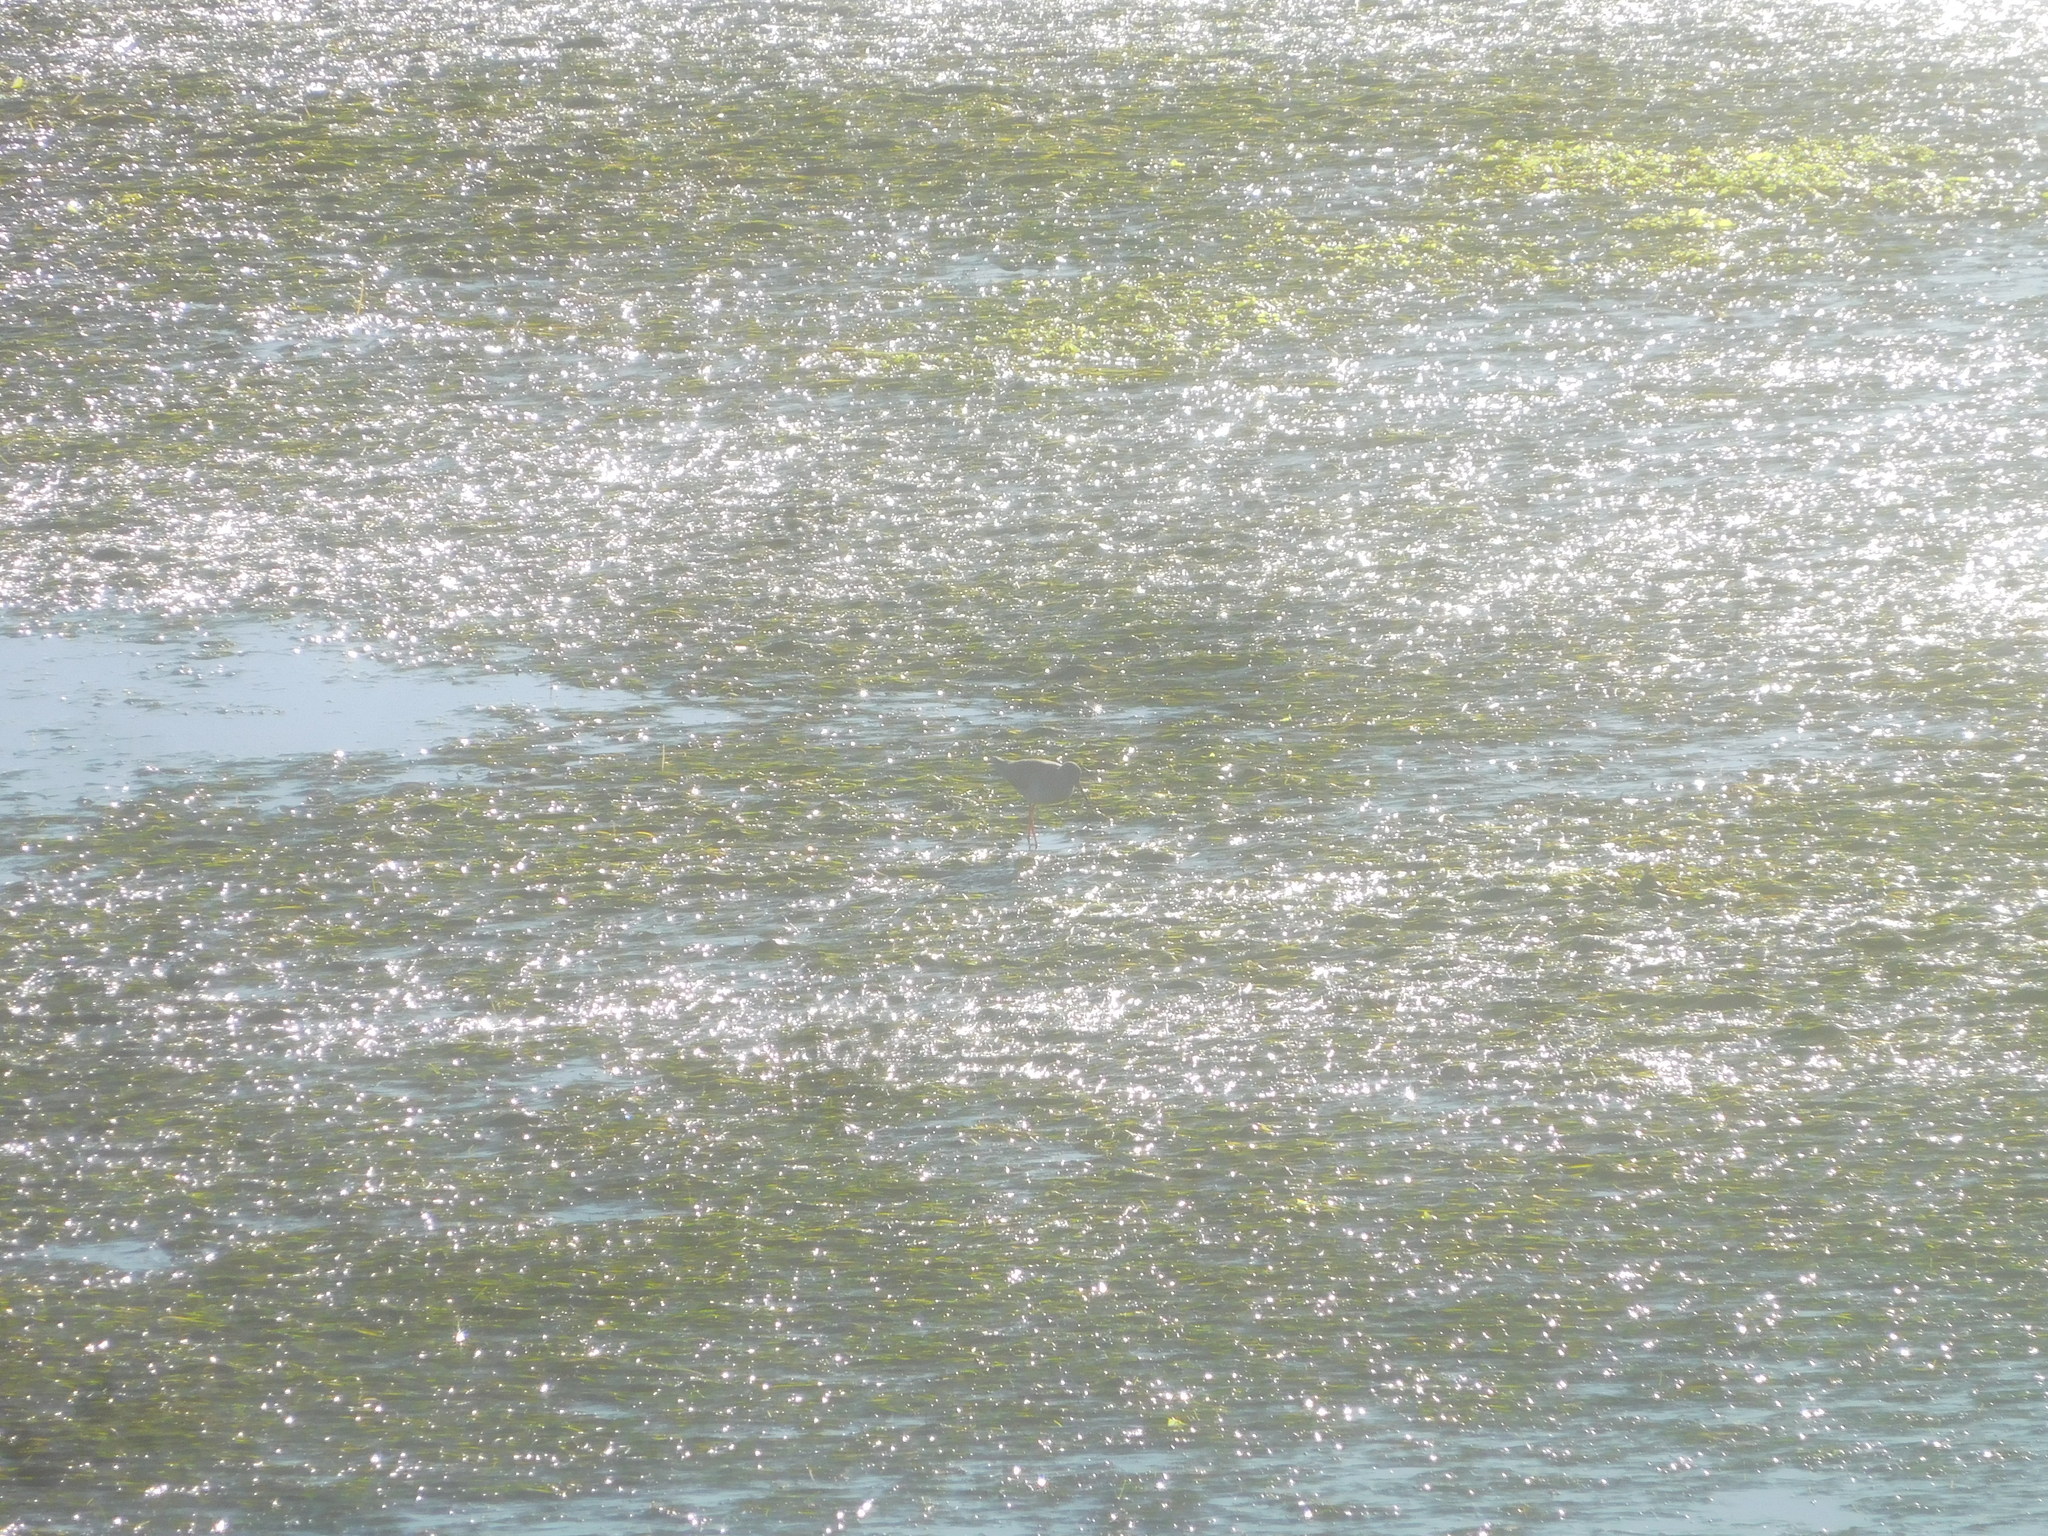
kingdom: Animalia
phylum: Chordata
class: Aves
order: Charadriiformes
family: Recurvirostridae
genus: Himantopus
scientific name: Himantopus himantopus
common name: Black-winged stilt
